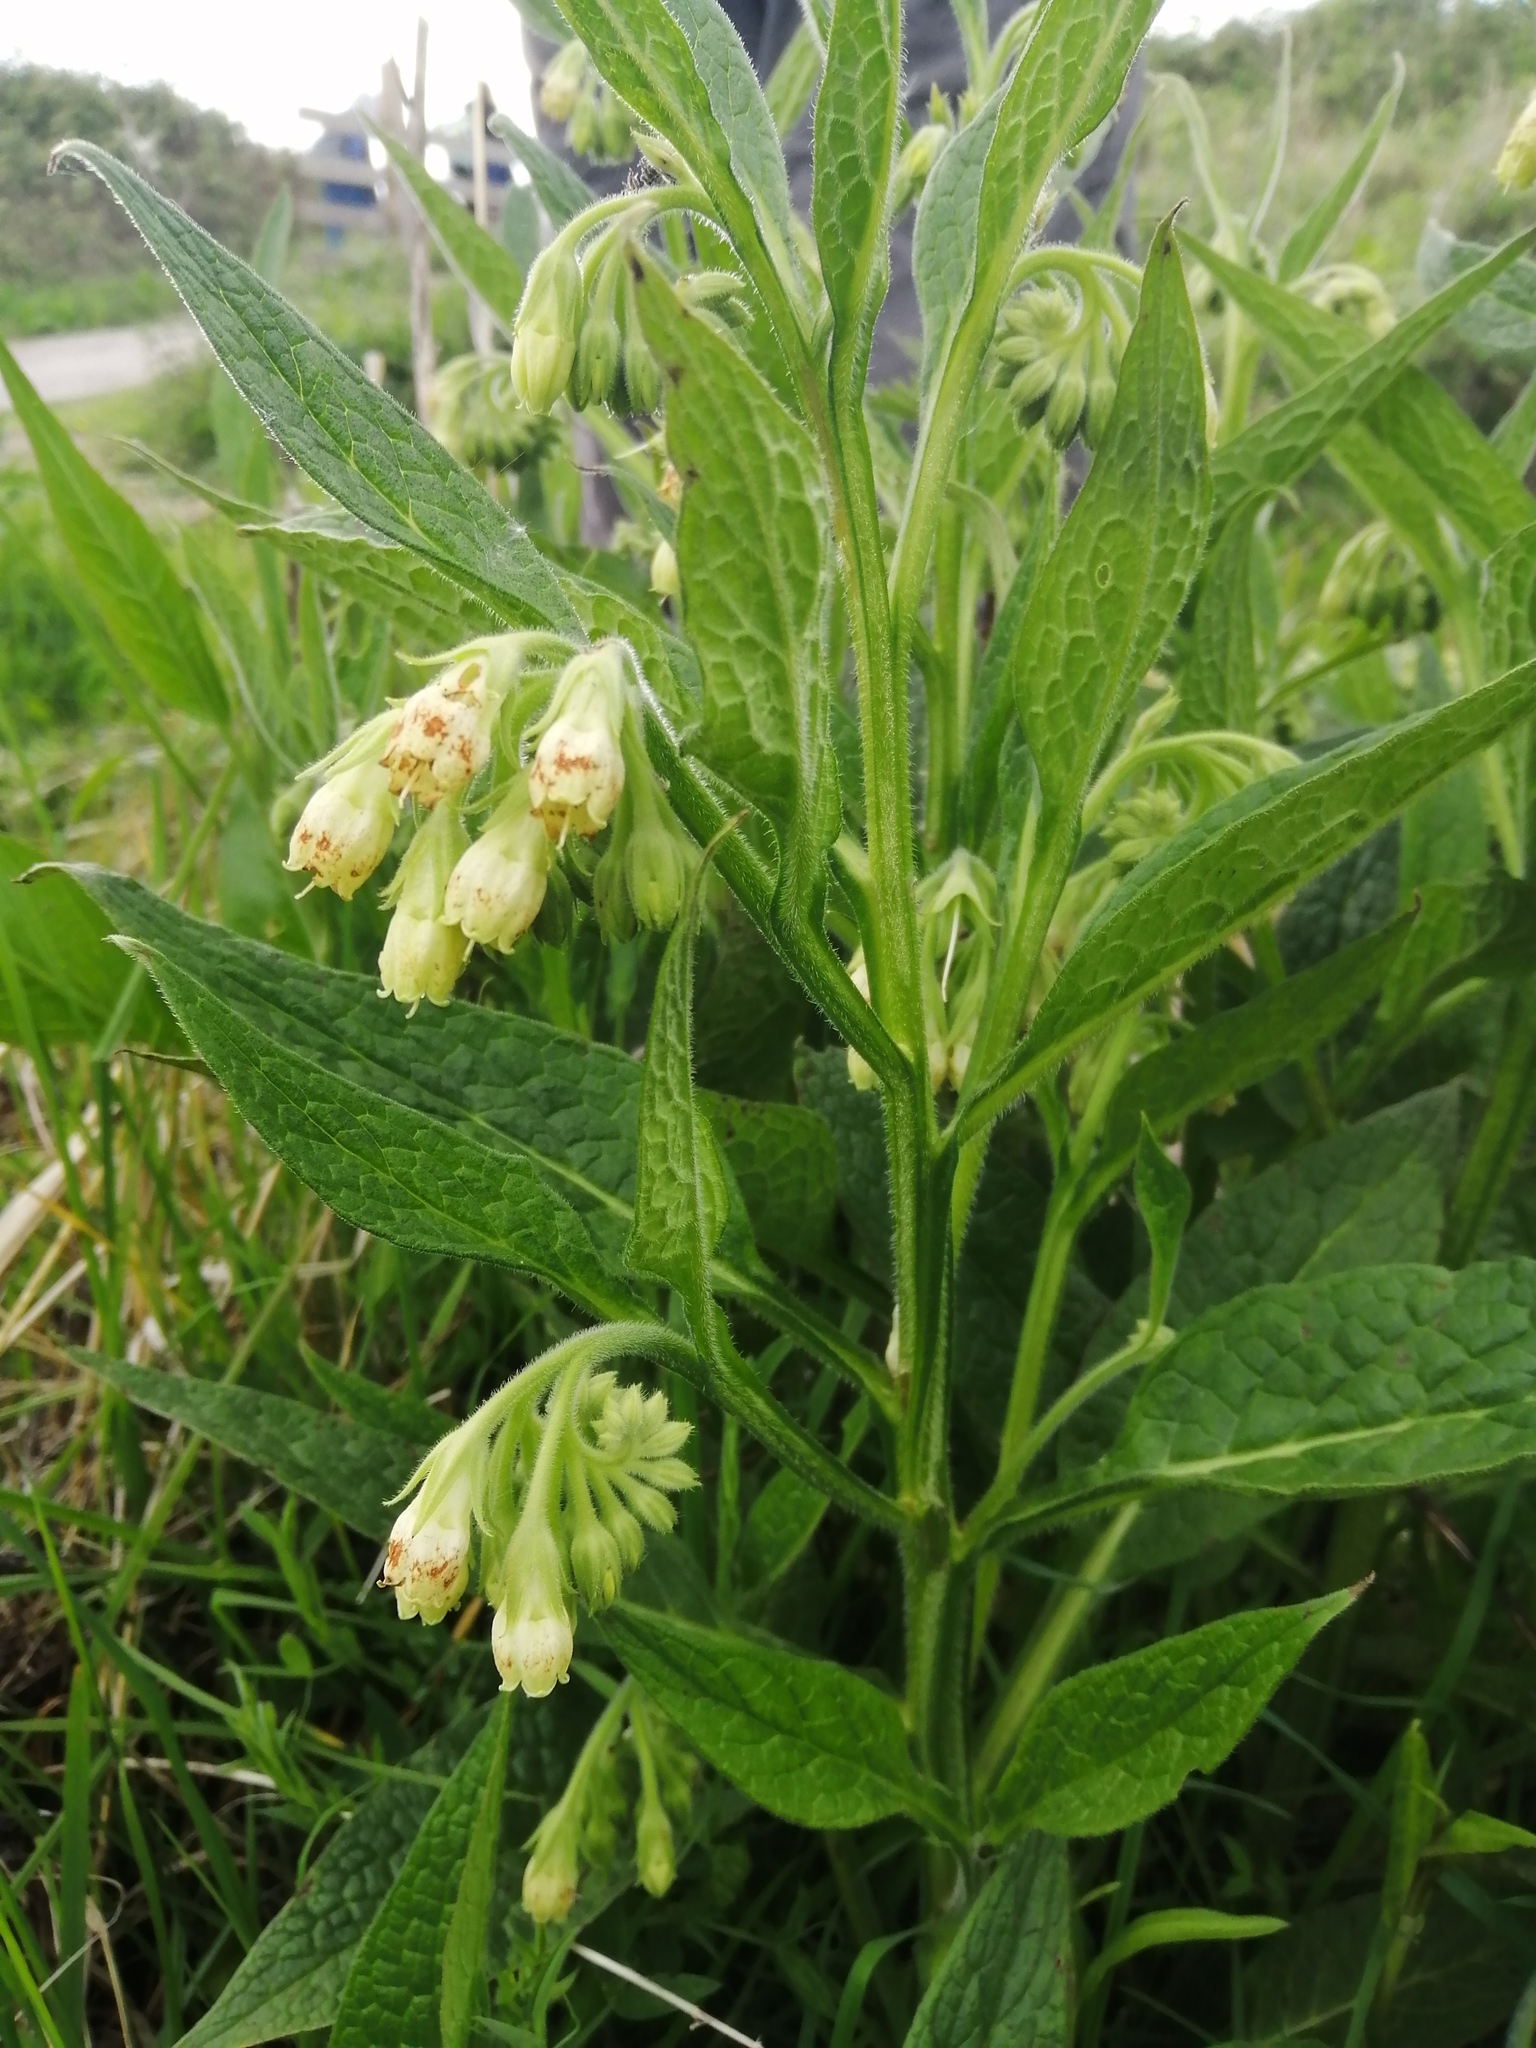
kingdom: Plantae
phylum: Tracheophyta
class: Magnoliopsida
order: Boraginales
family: Boraginaceae
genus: Symphytum
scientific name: Symphytum officinale
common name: Common comfrey
